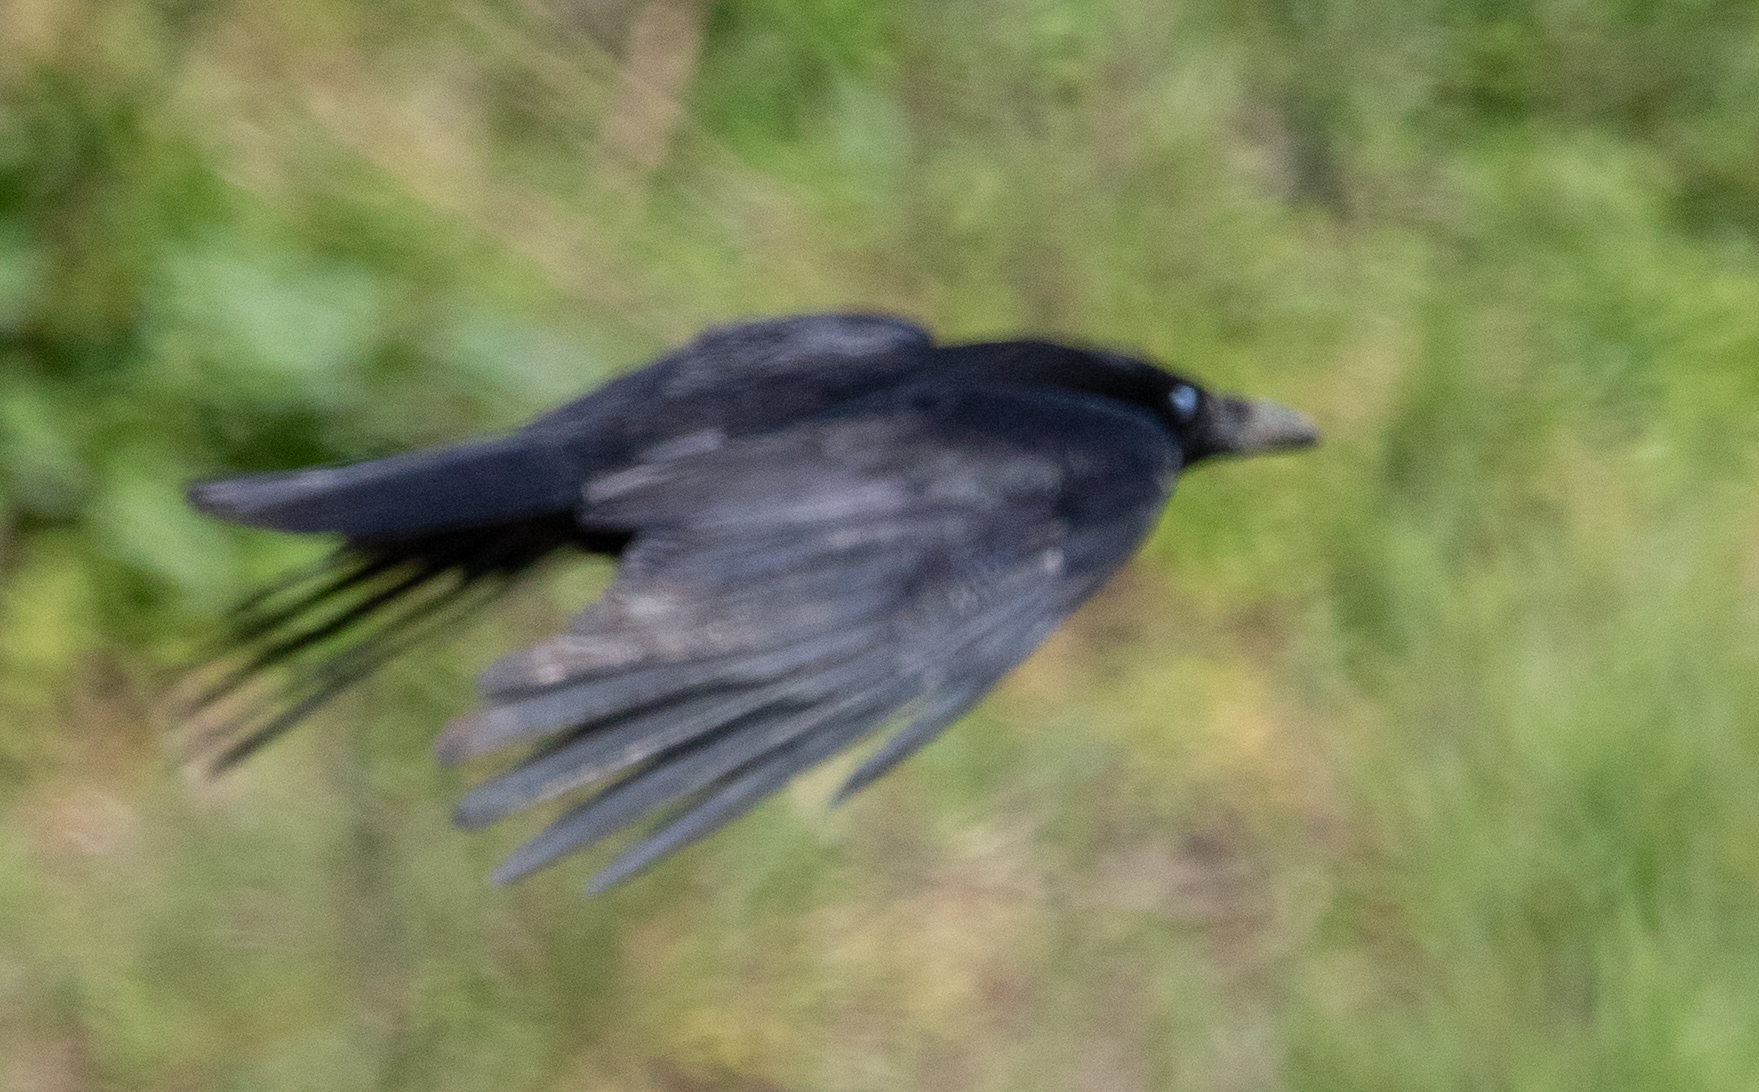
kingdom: Animalia
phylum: Chordata
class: Aves
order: Passeriformes
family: Corvidae
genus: Corvus
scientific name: Corvus corone
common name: Carrion crow
